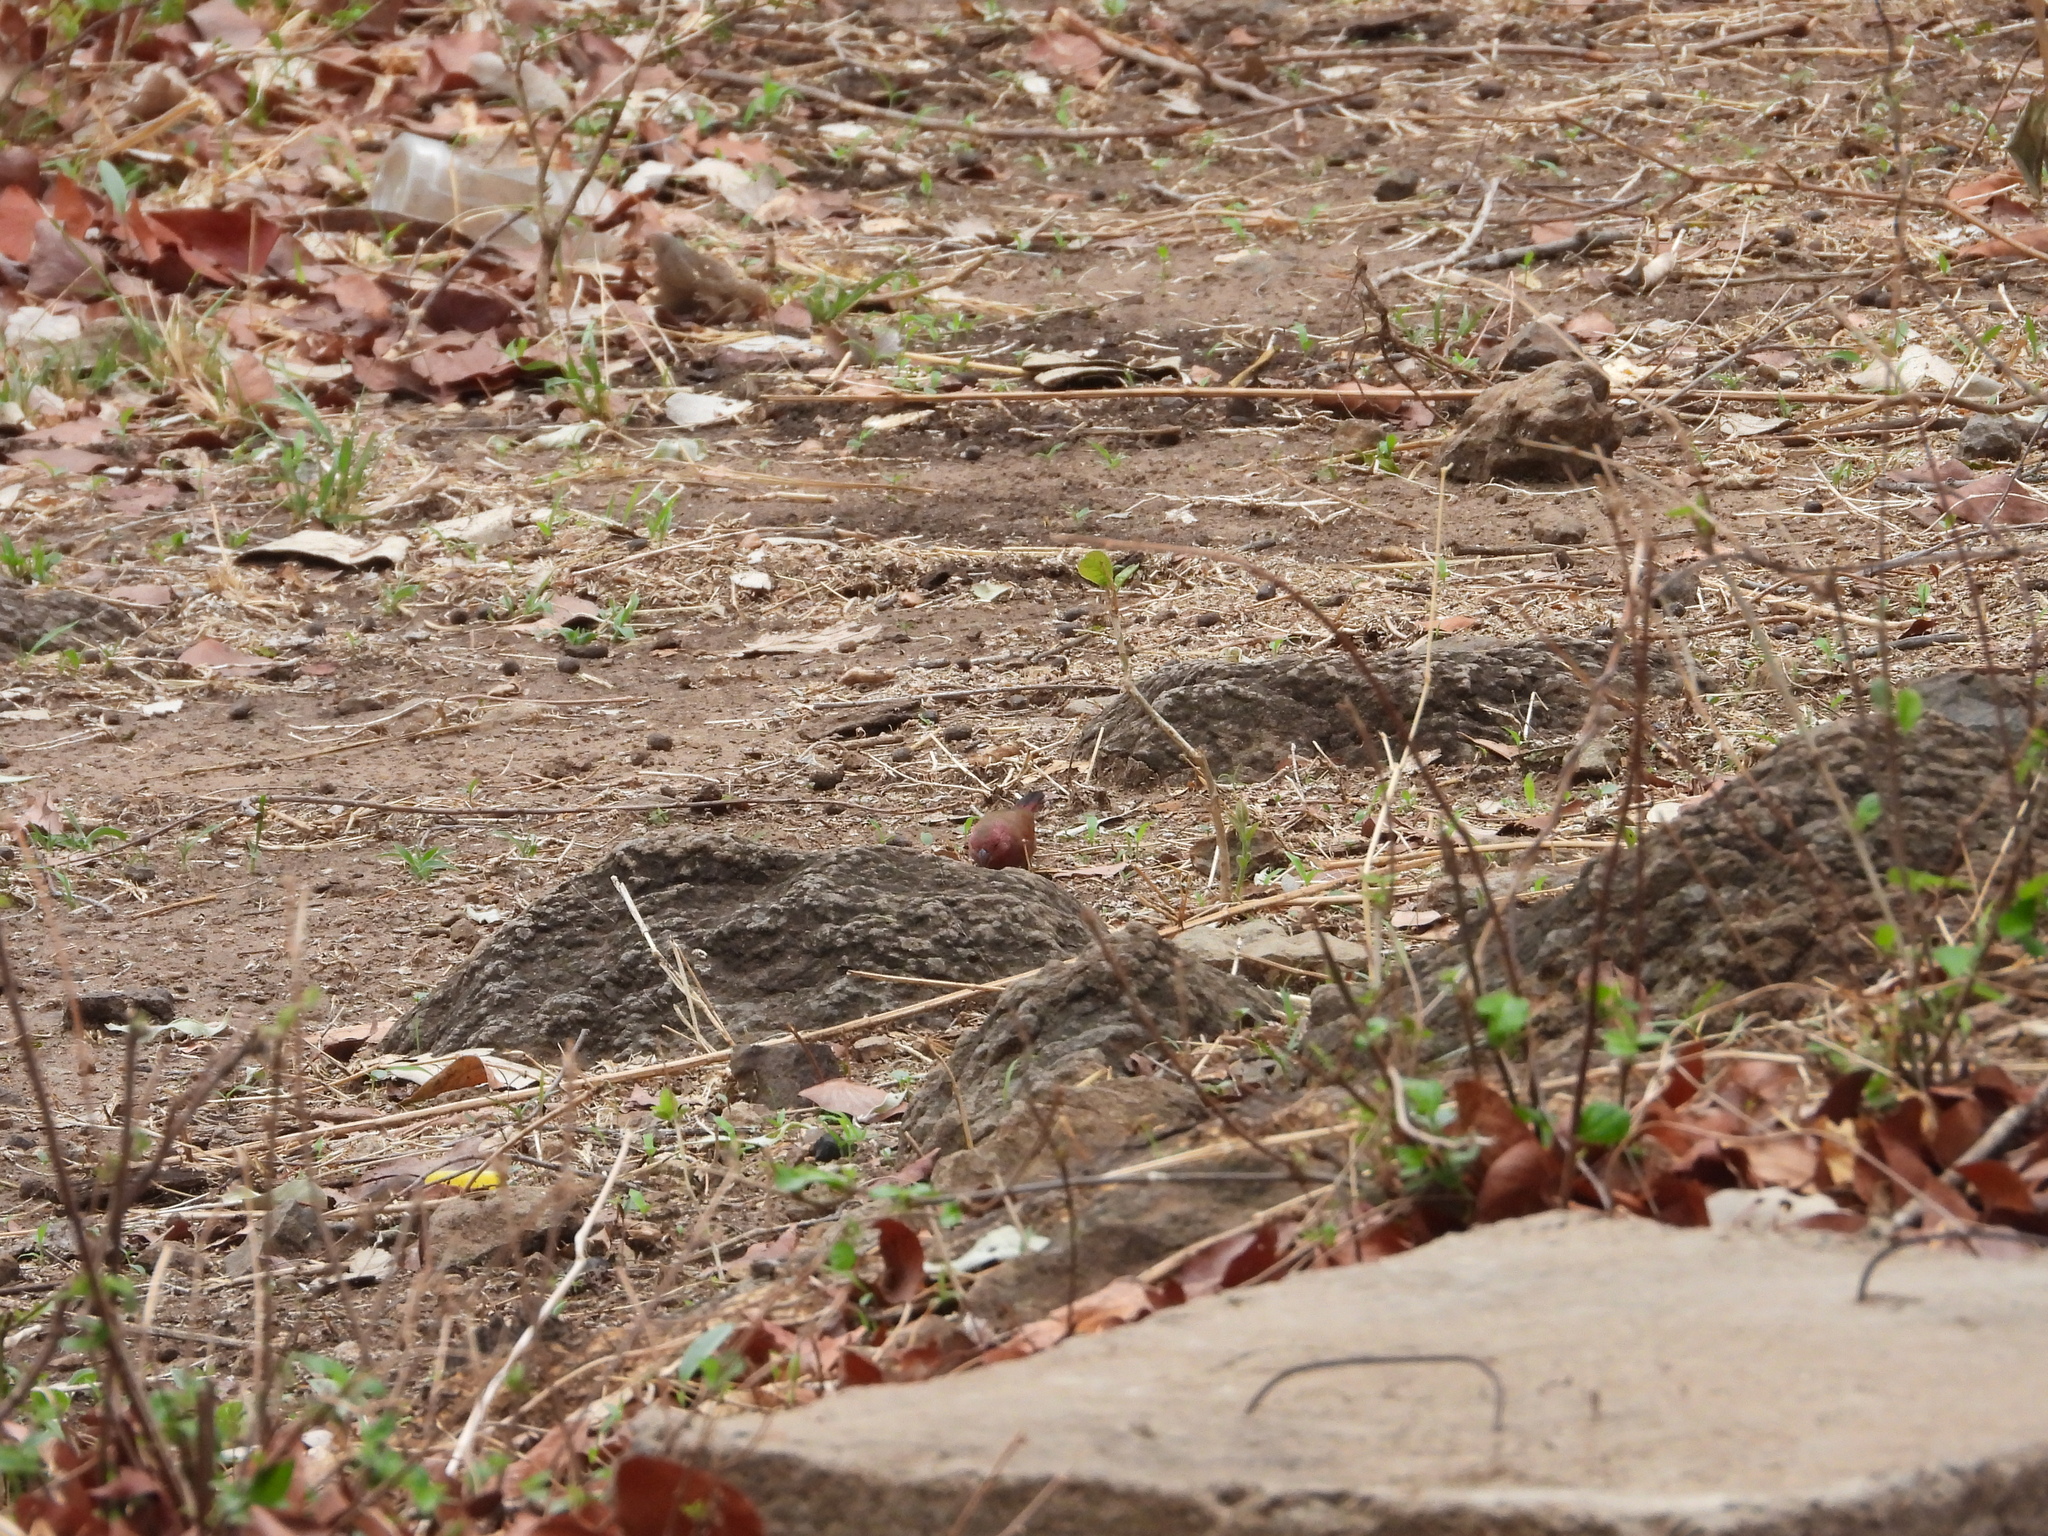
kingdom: Animalia
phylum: Chordata
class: Aves
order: Passeriformes
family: Estrildidae
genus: Lagonosticta
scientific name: Lagonosticta senegala
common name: Red-billed firefinch
